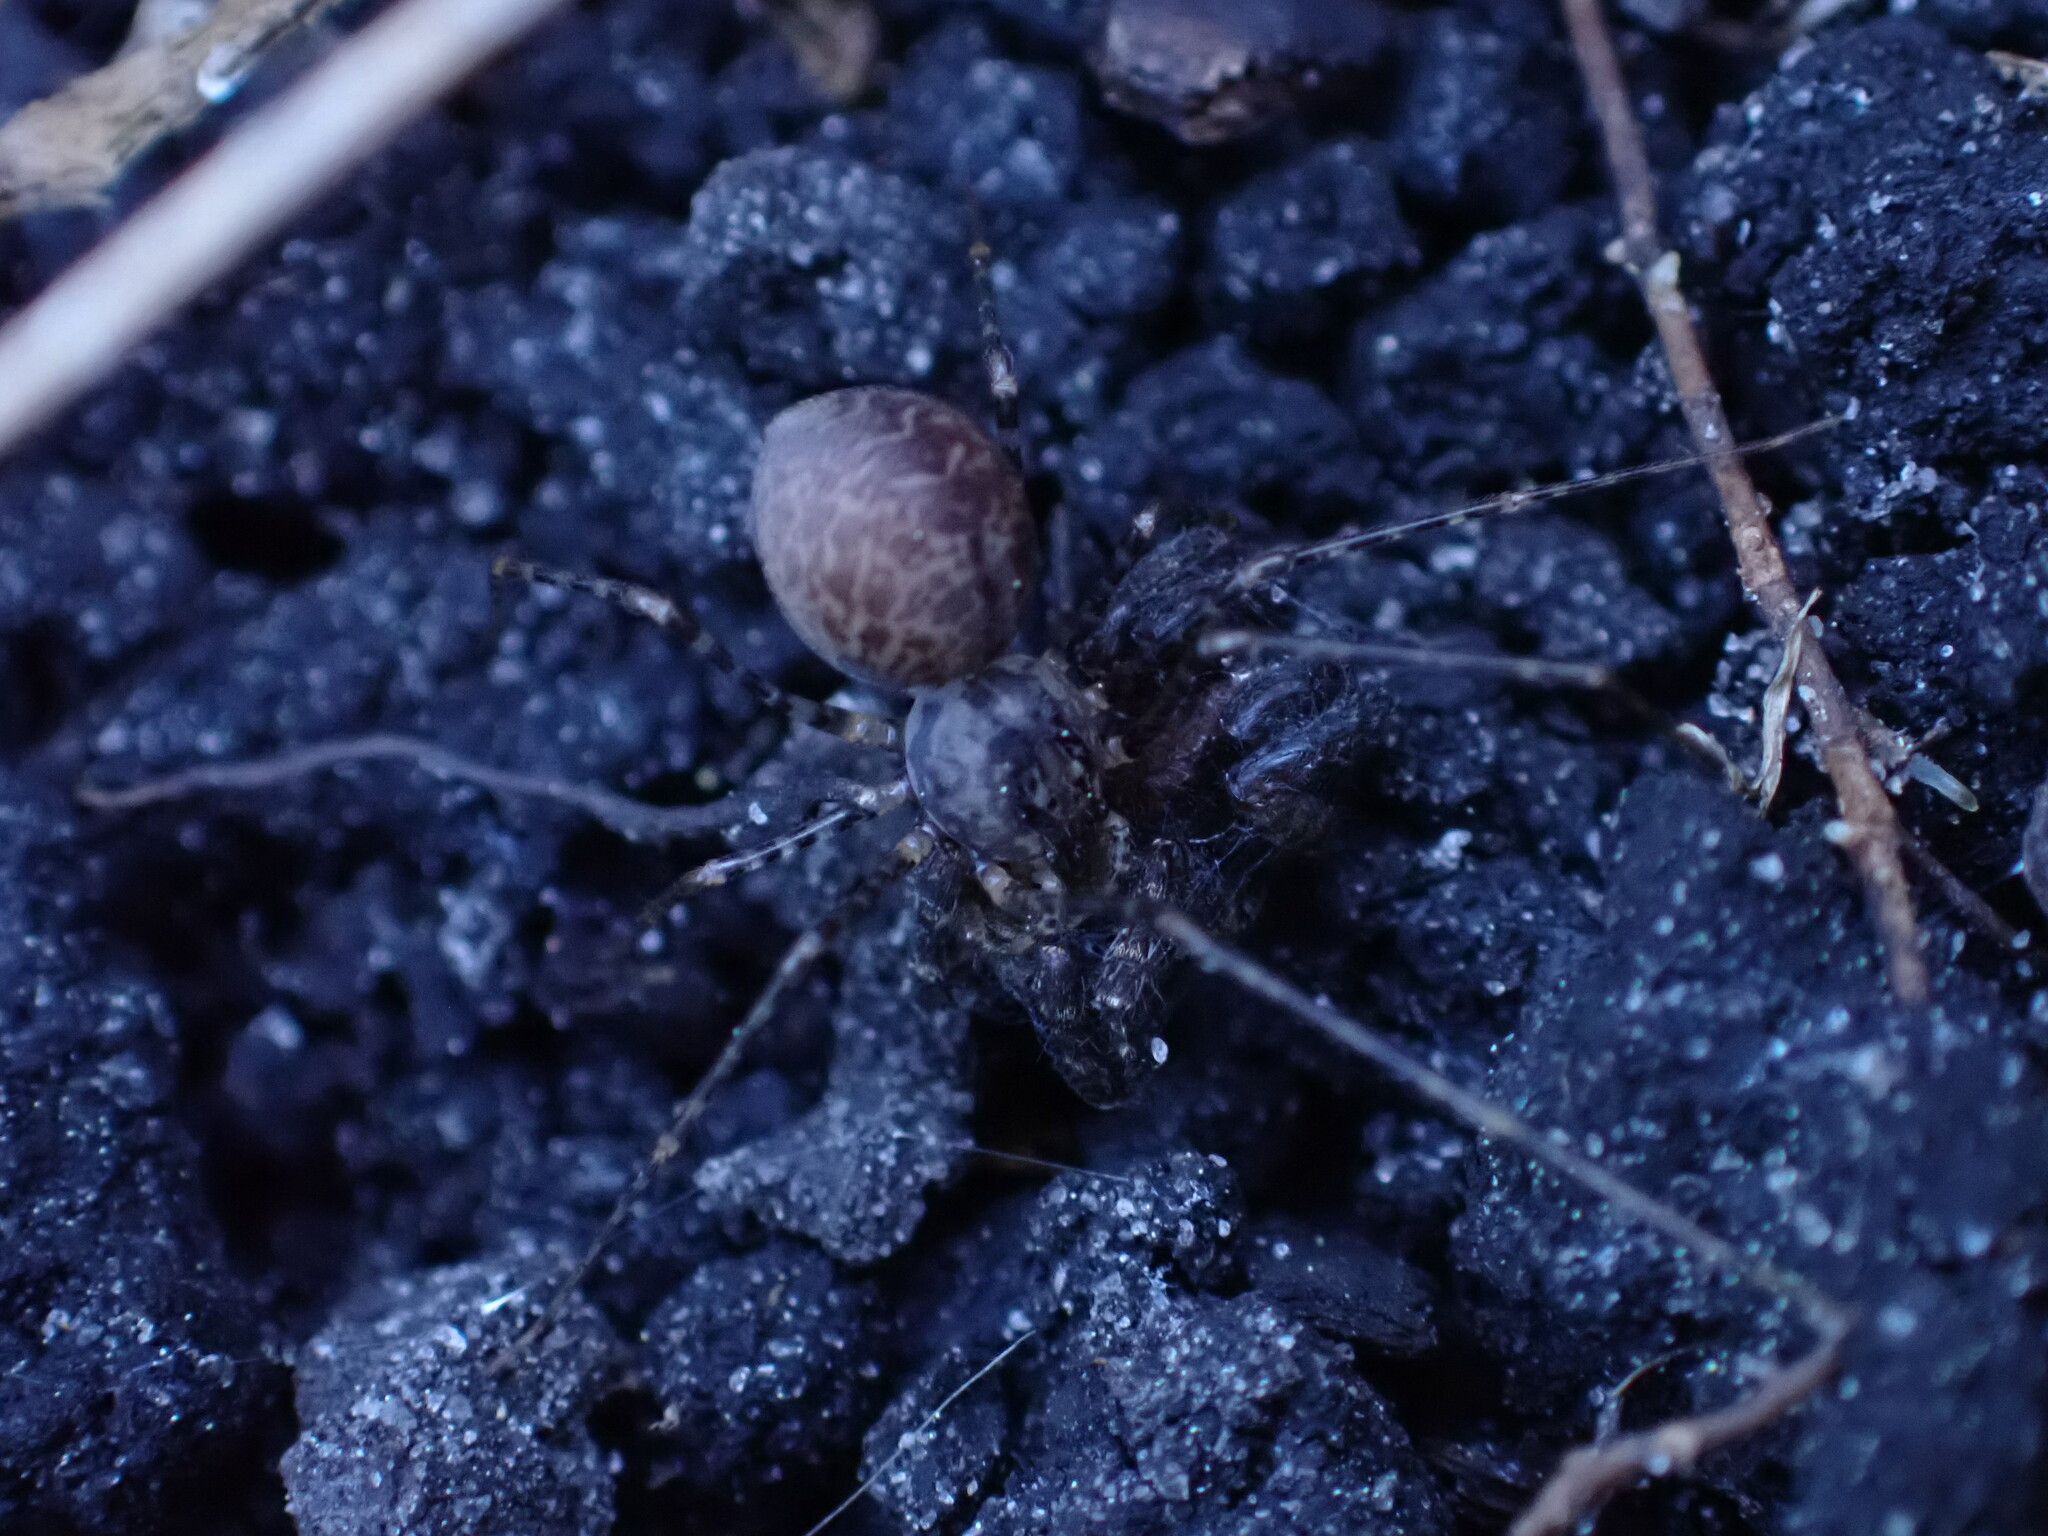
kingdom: Animalia
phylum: Arthropoda
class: Arachnida
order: Araneae
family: Scytodidae
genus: Scytodes
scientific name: Scytodes globula
